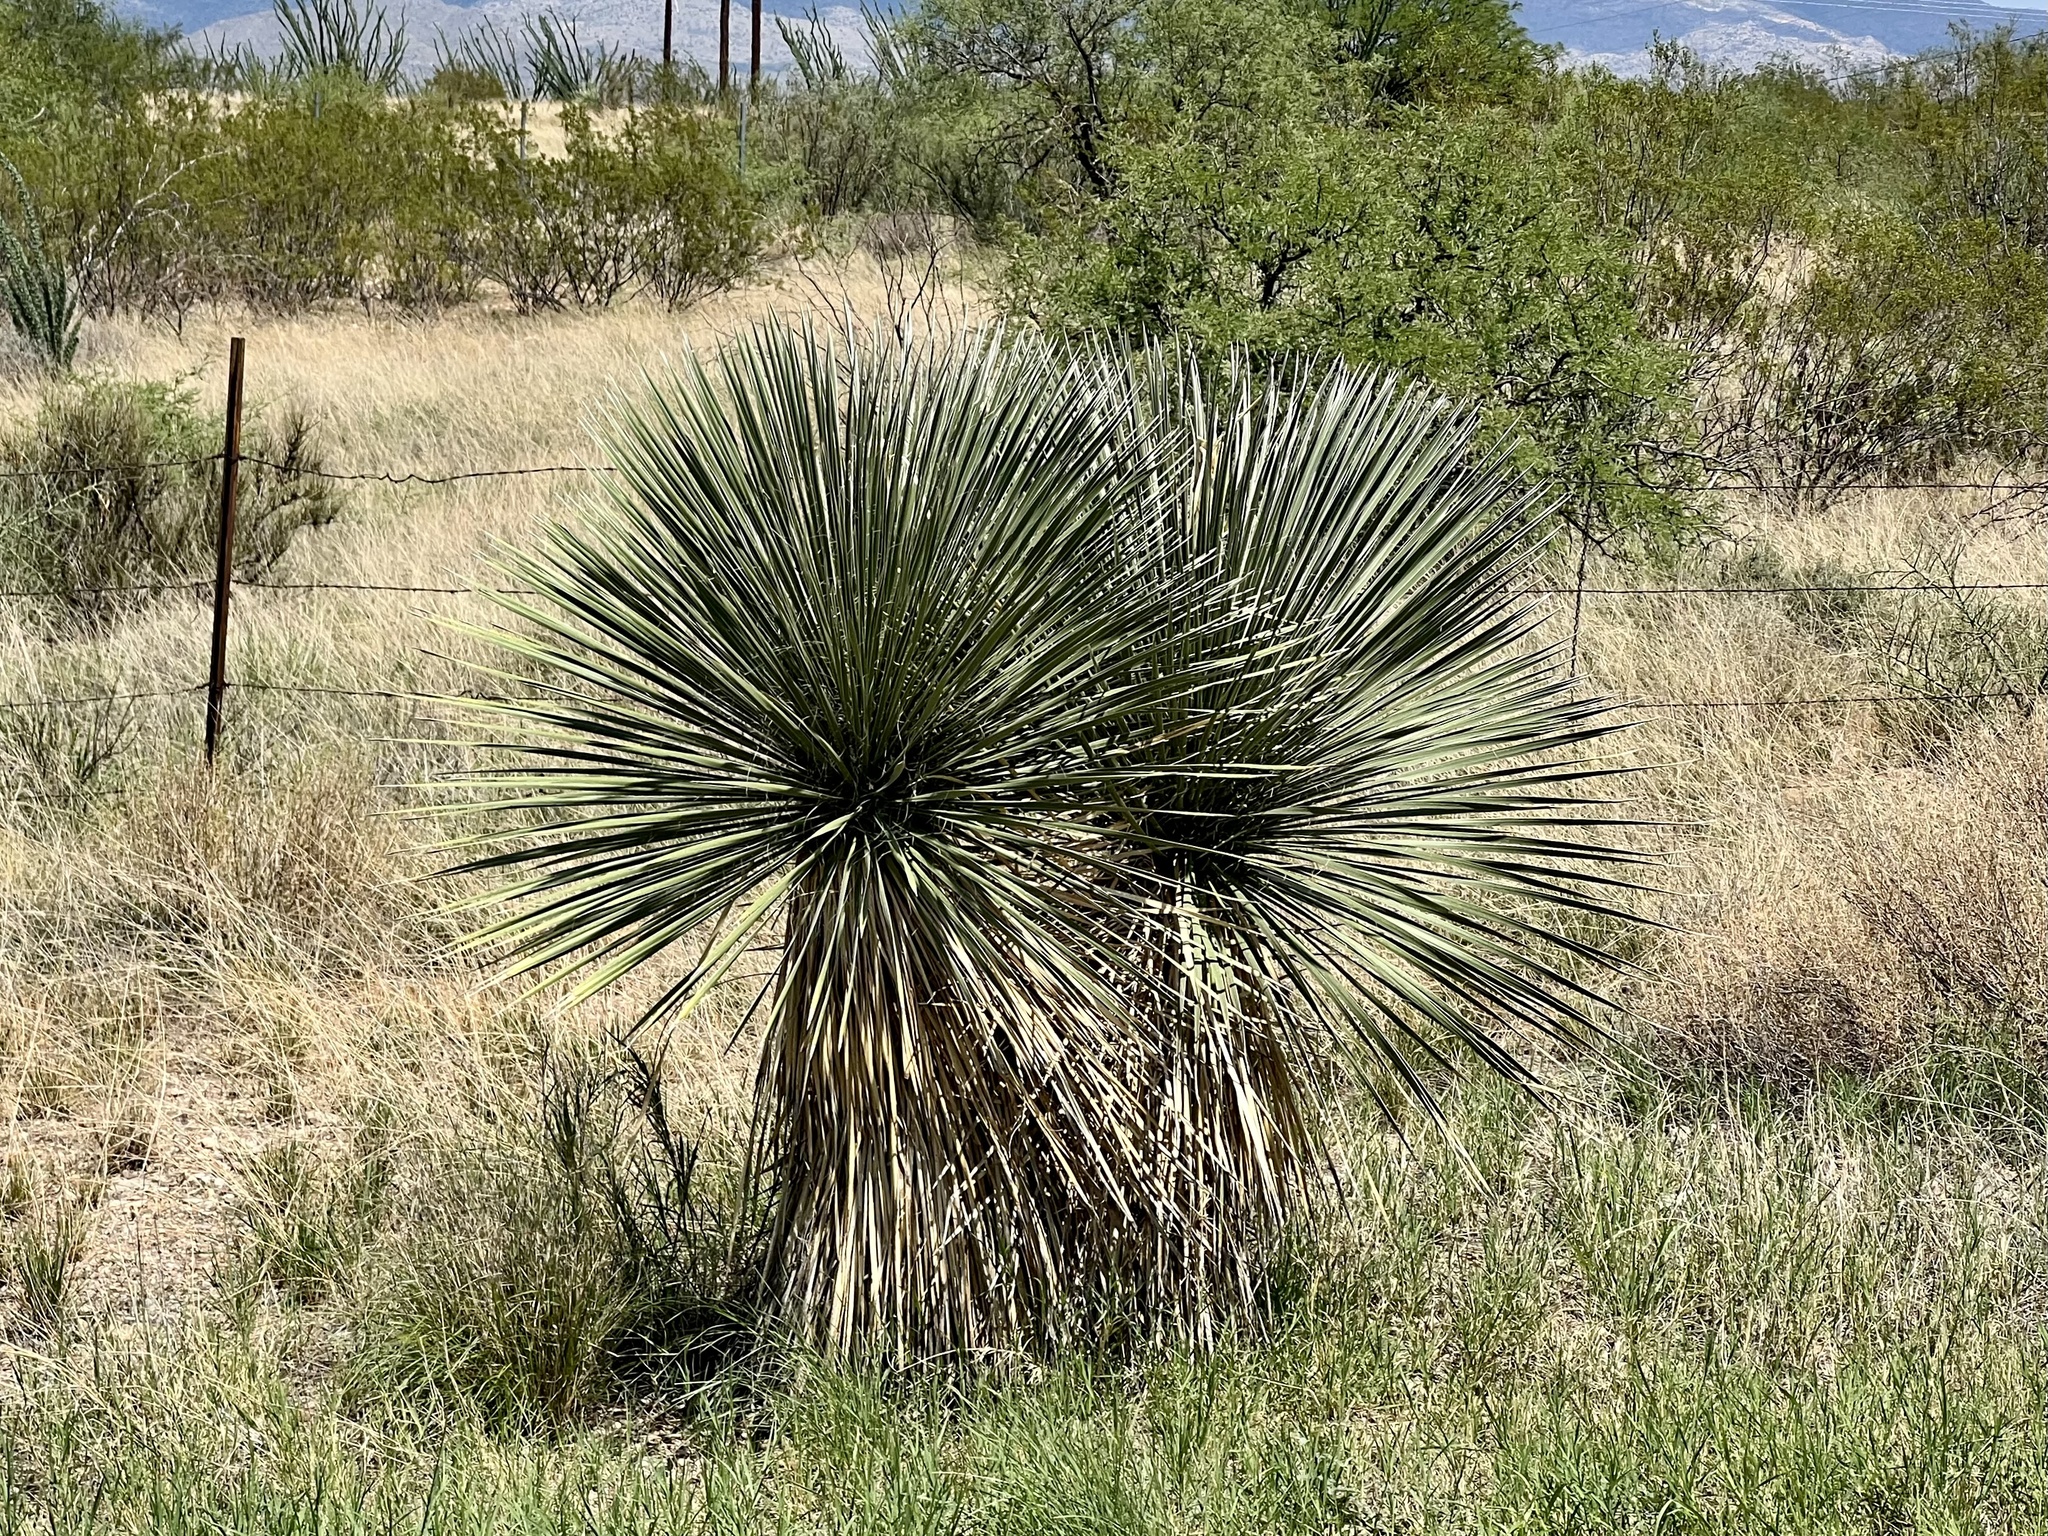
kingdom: Plantae
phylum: Tracheophyta
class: Liliopsida
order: Asparagales
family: Asparagaceae
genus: Yucca
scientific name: Yucca elata
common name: Palmella
